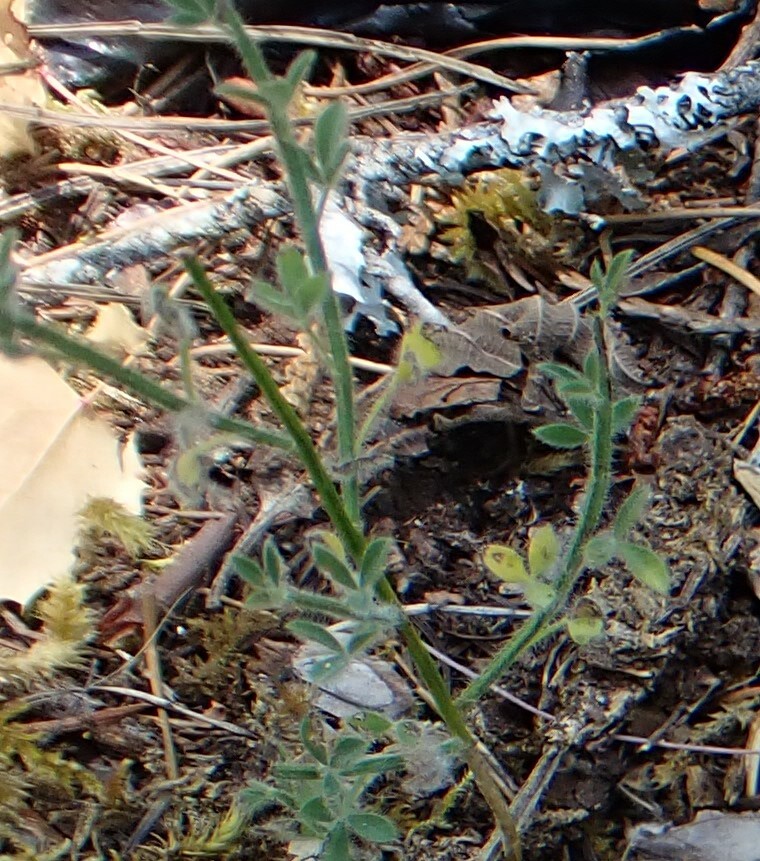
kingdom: Plantae
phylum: Tracheophyta
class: Magnoliopsida
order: Fabales
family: Fabaceae
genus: Cytisus
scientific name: Cytisus scoparius
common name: Scotch broom
